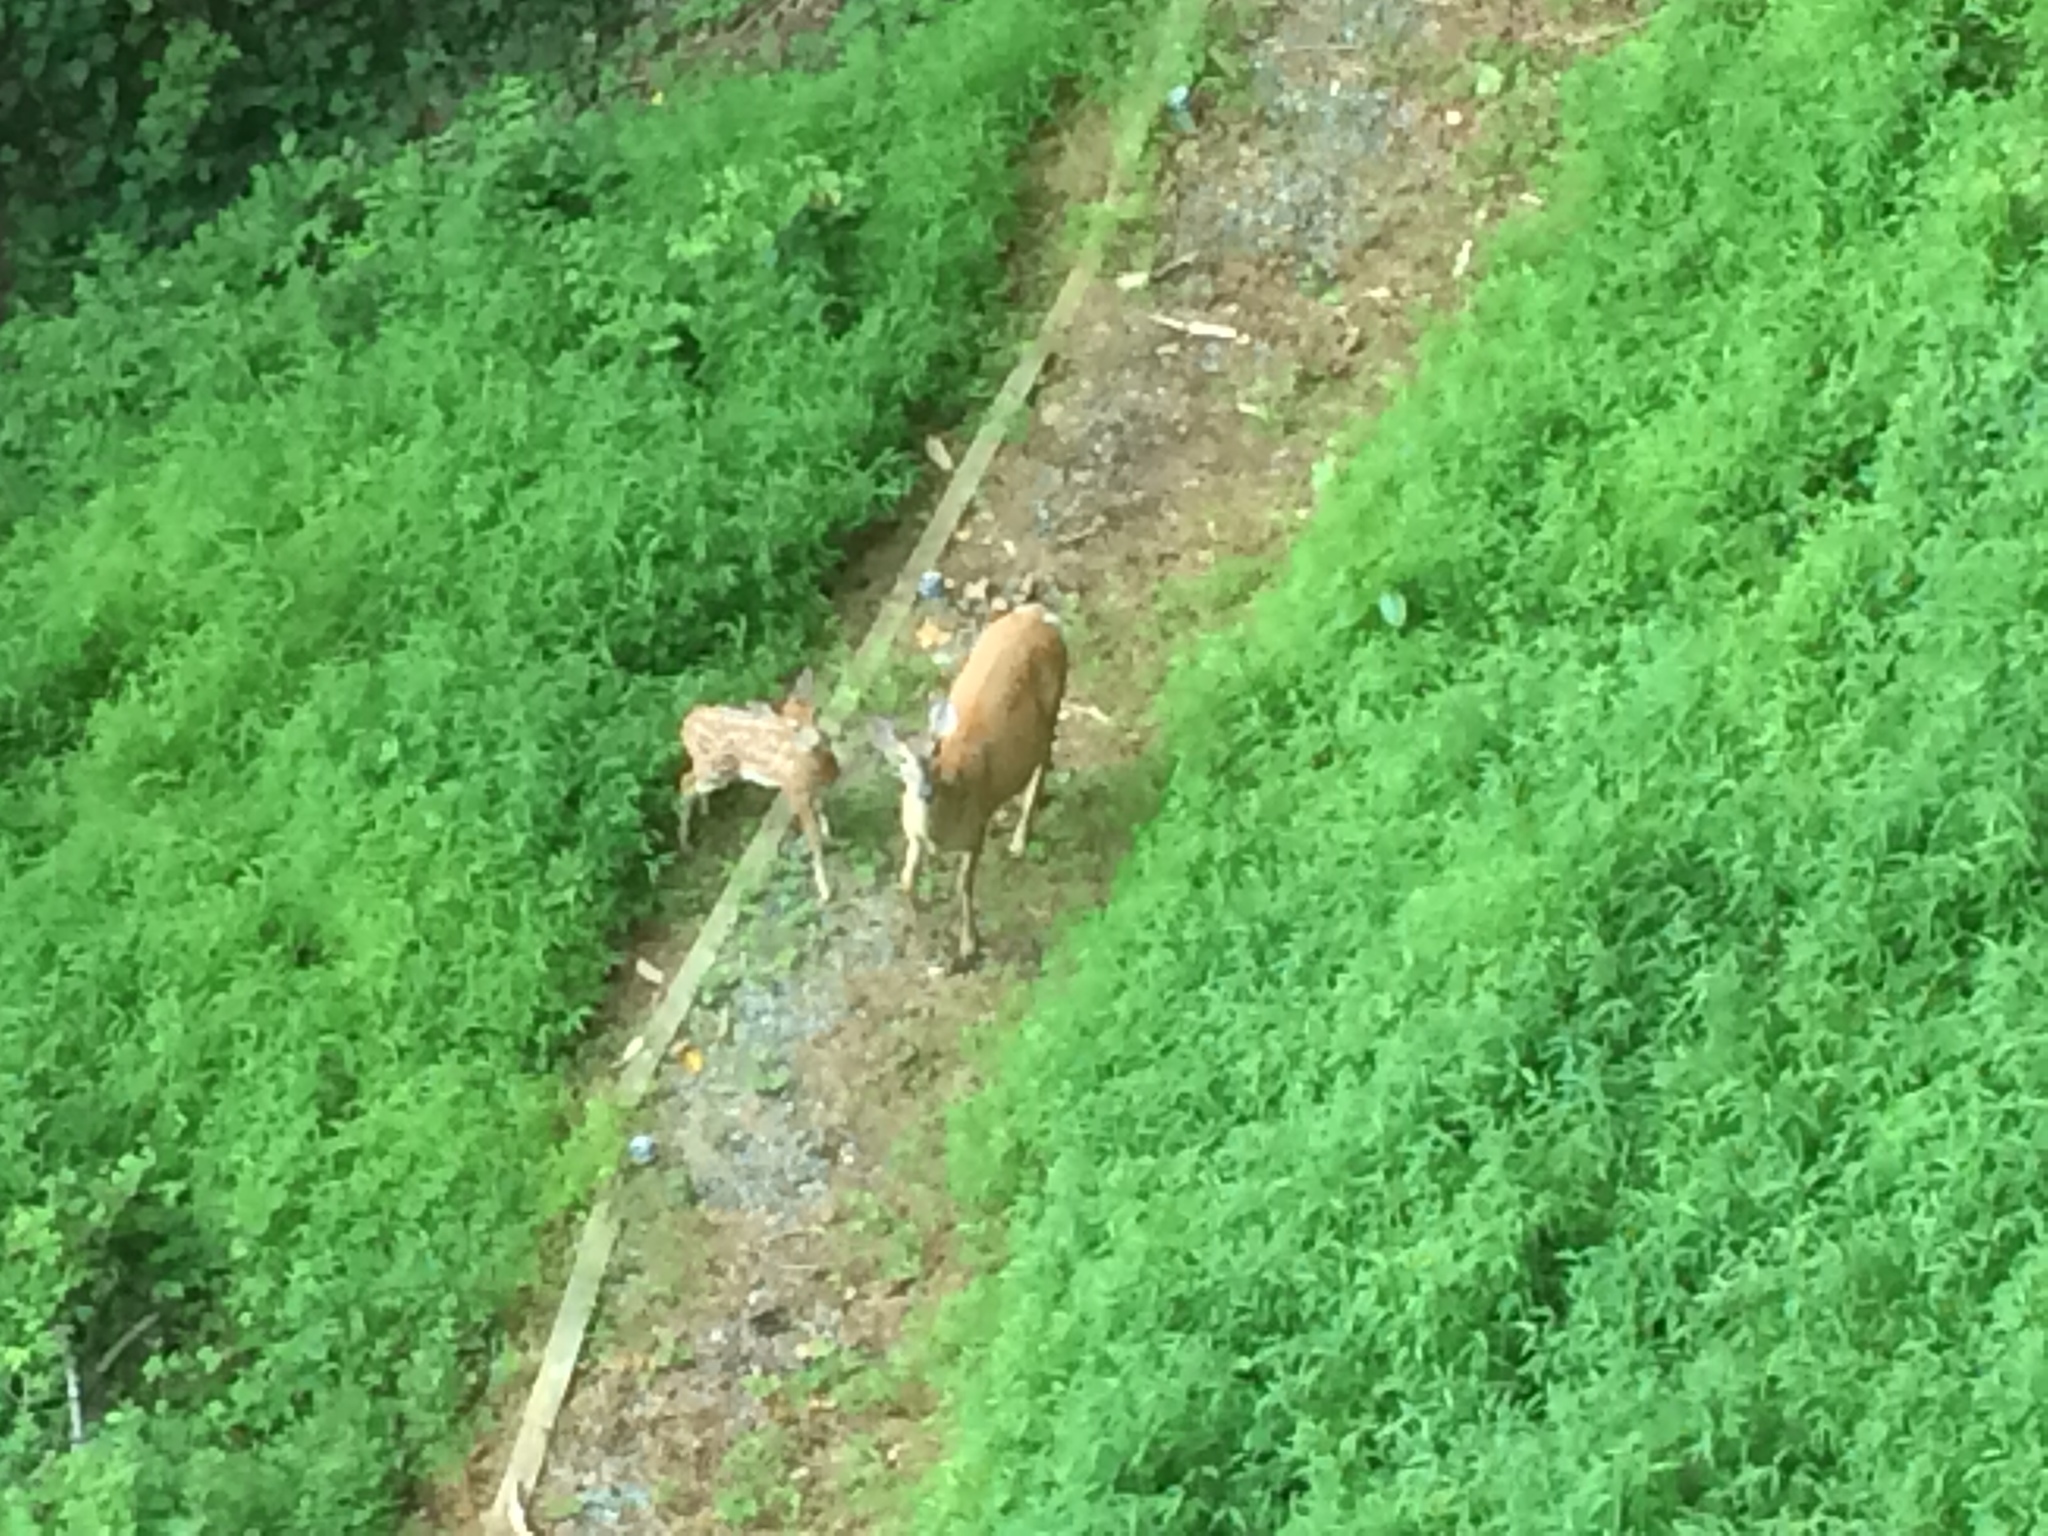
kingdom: Animalia
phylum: Chordata
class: Mammalia
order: Artiodactyla
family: Cervidae
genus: Odocoileus
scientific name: Odocoileus virginianus
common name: White-tailed deer
